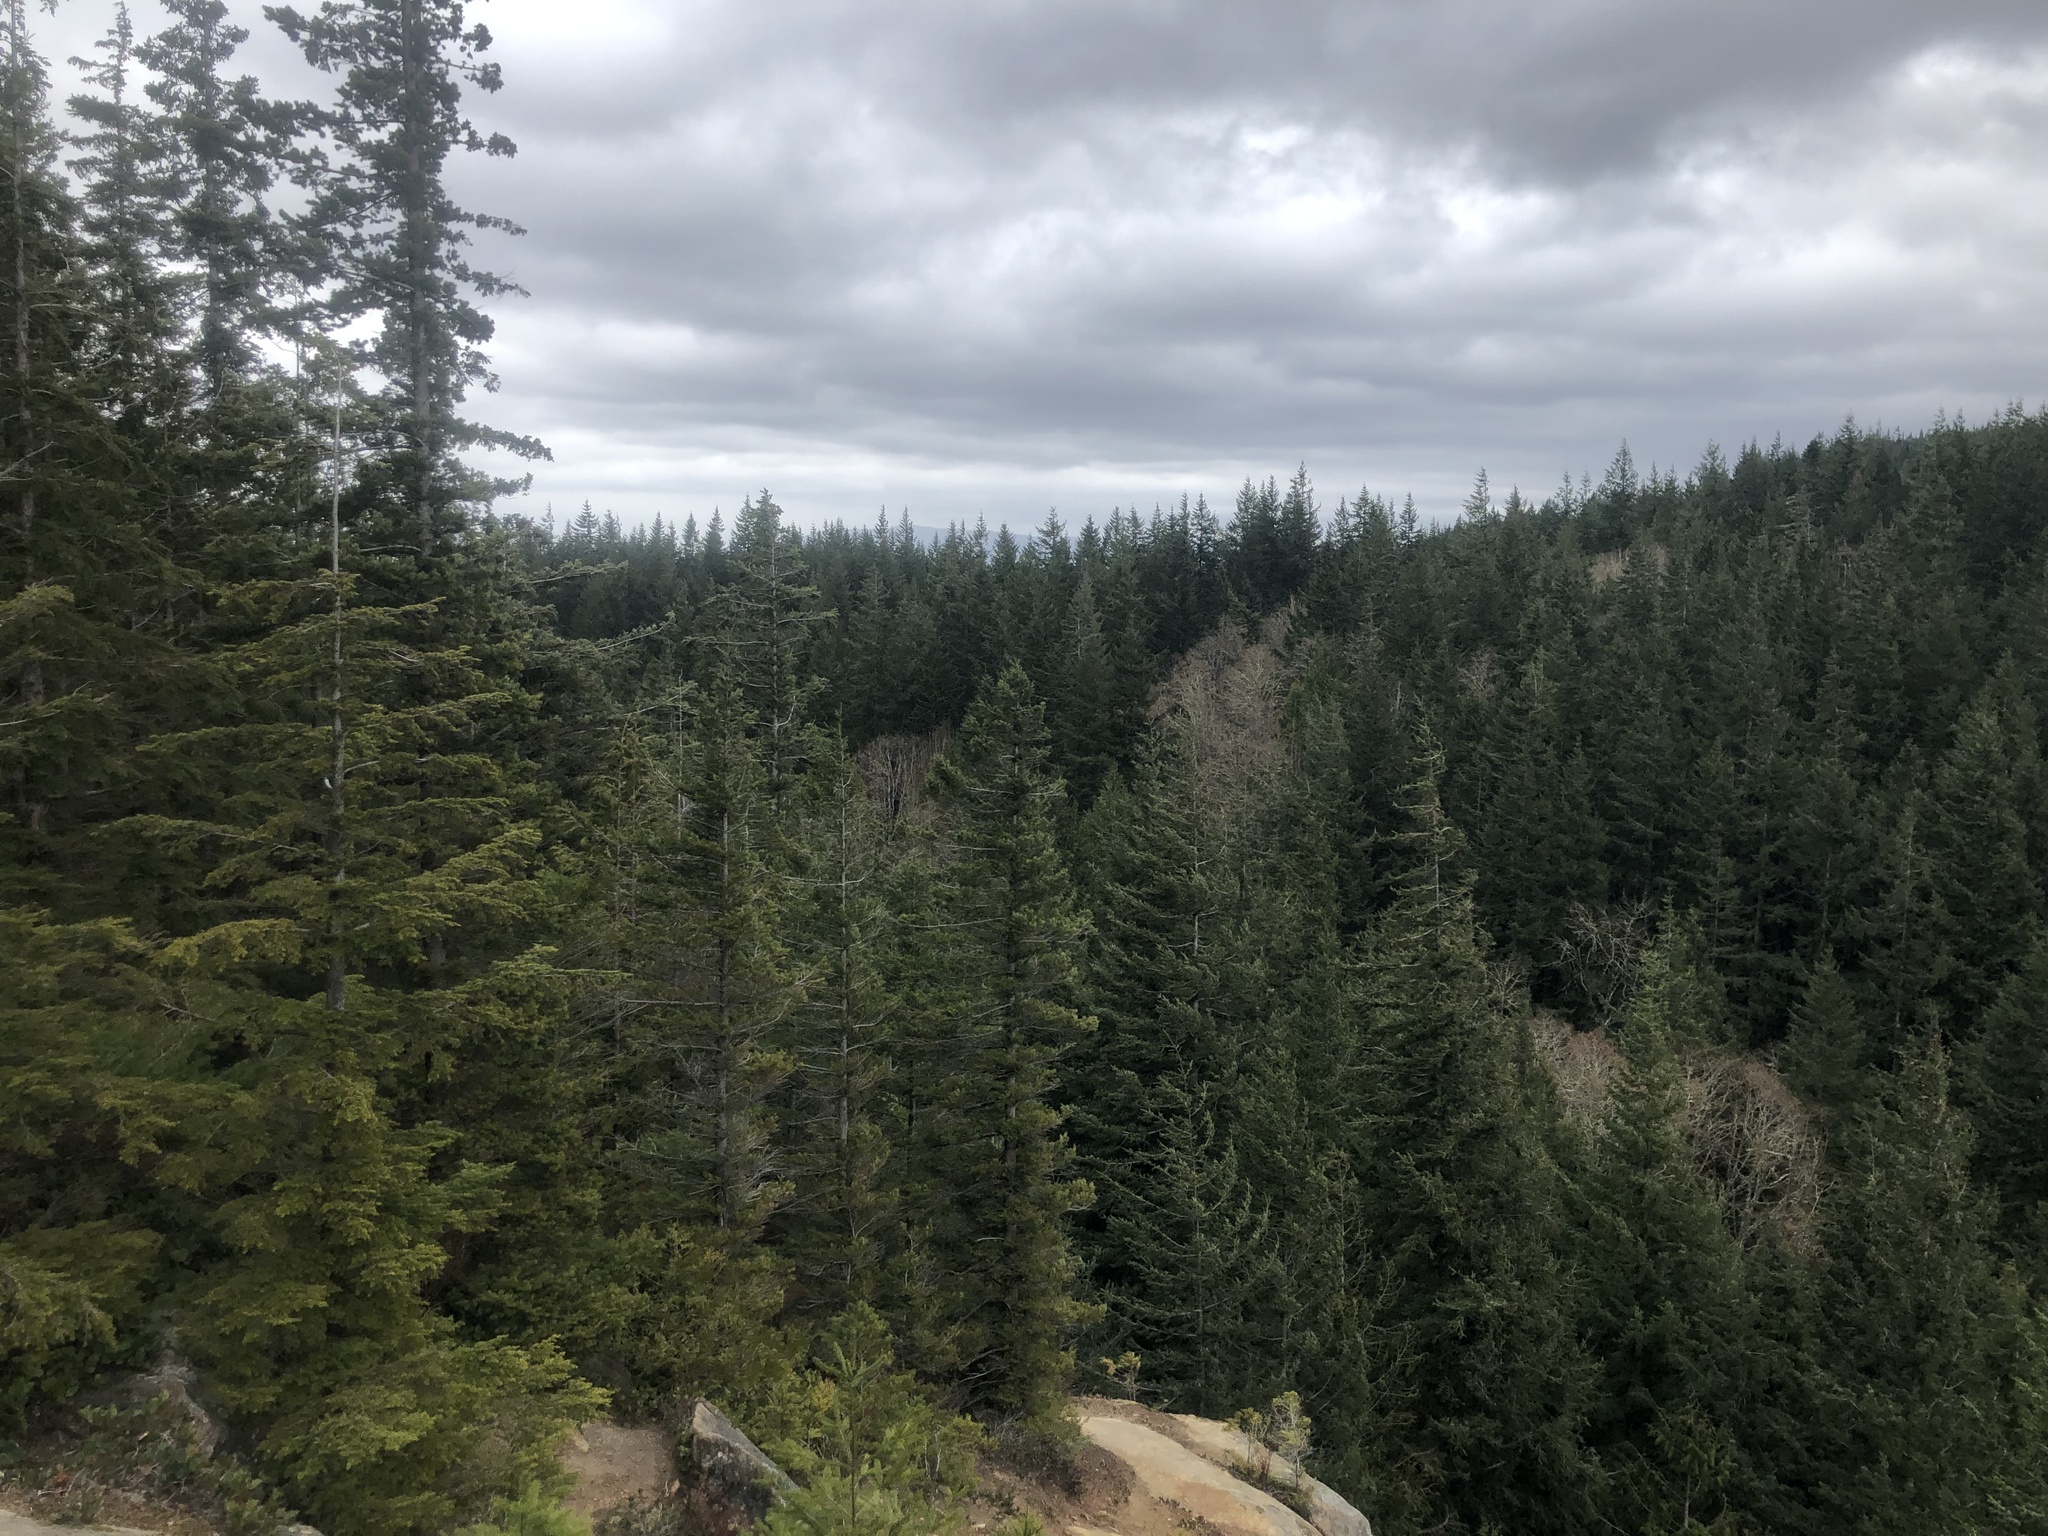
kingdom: Plantae
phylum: Tracheophyta
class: Pinopsida
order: Pinales
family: Pinaceae
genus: Tsuga
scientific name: Tsuga heterophylla
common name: Western hemlock
